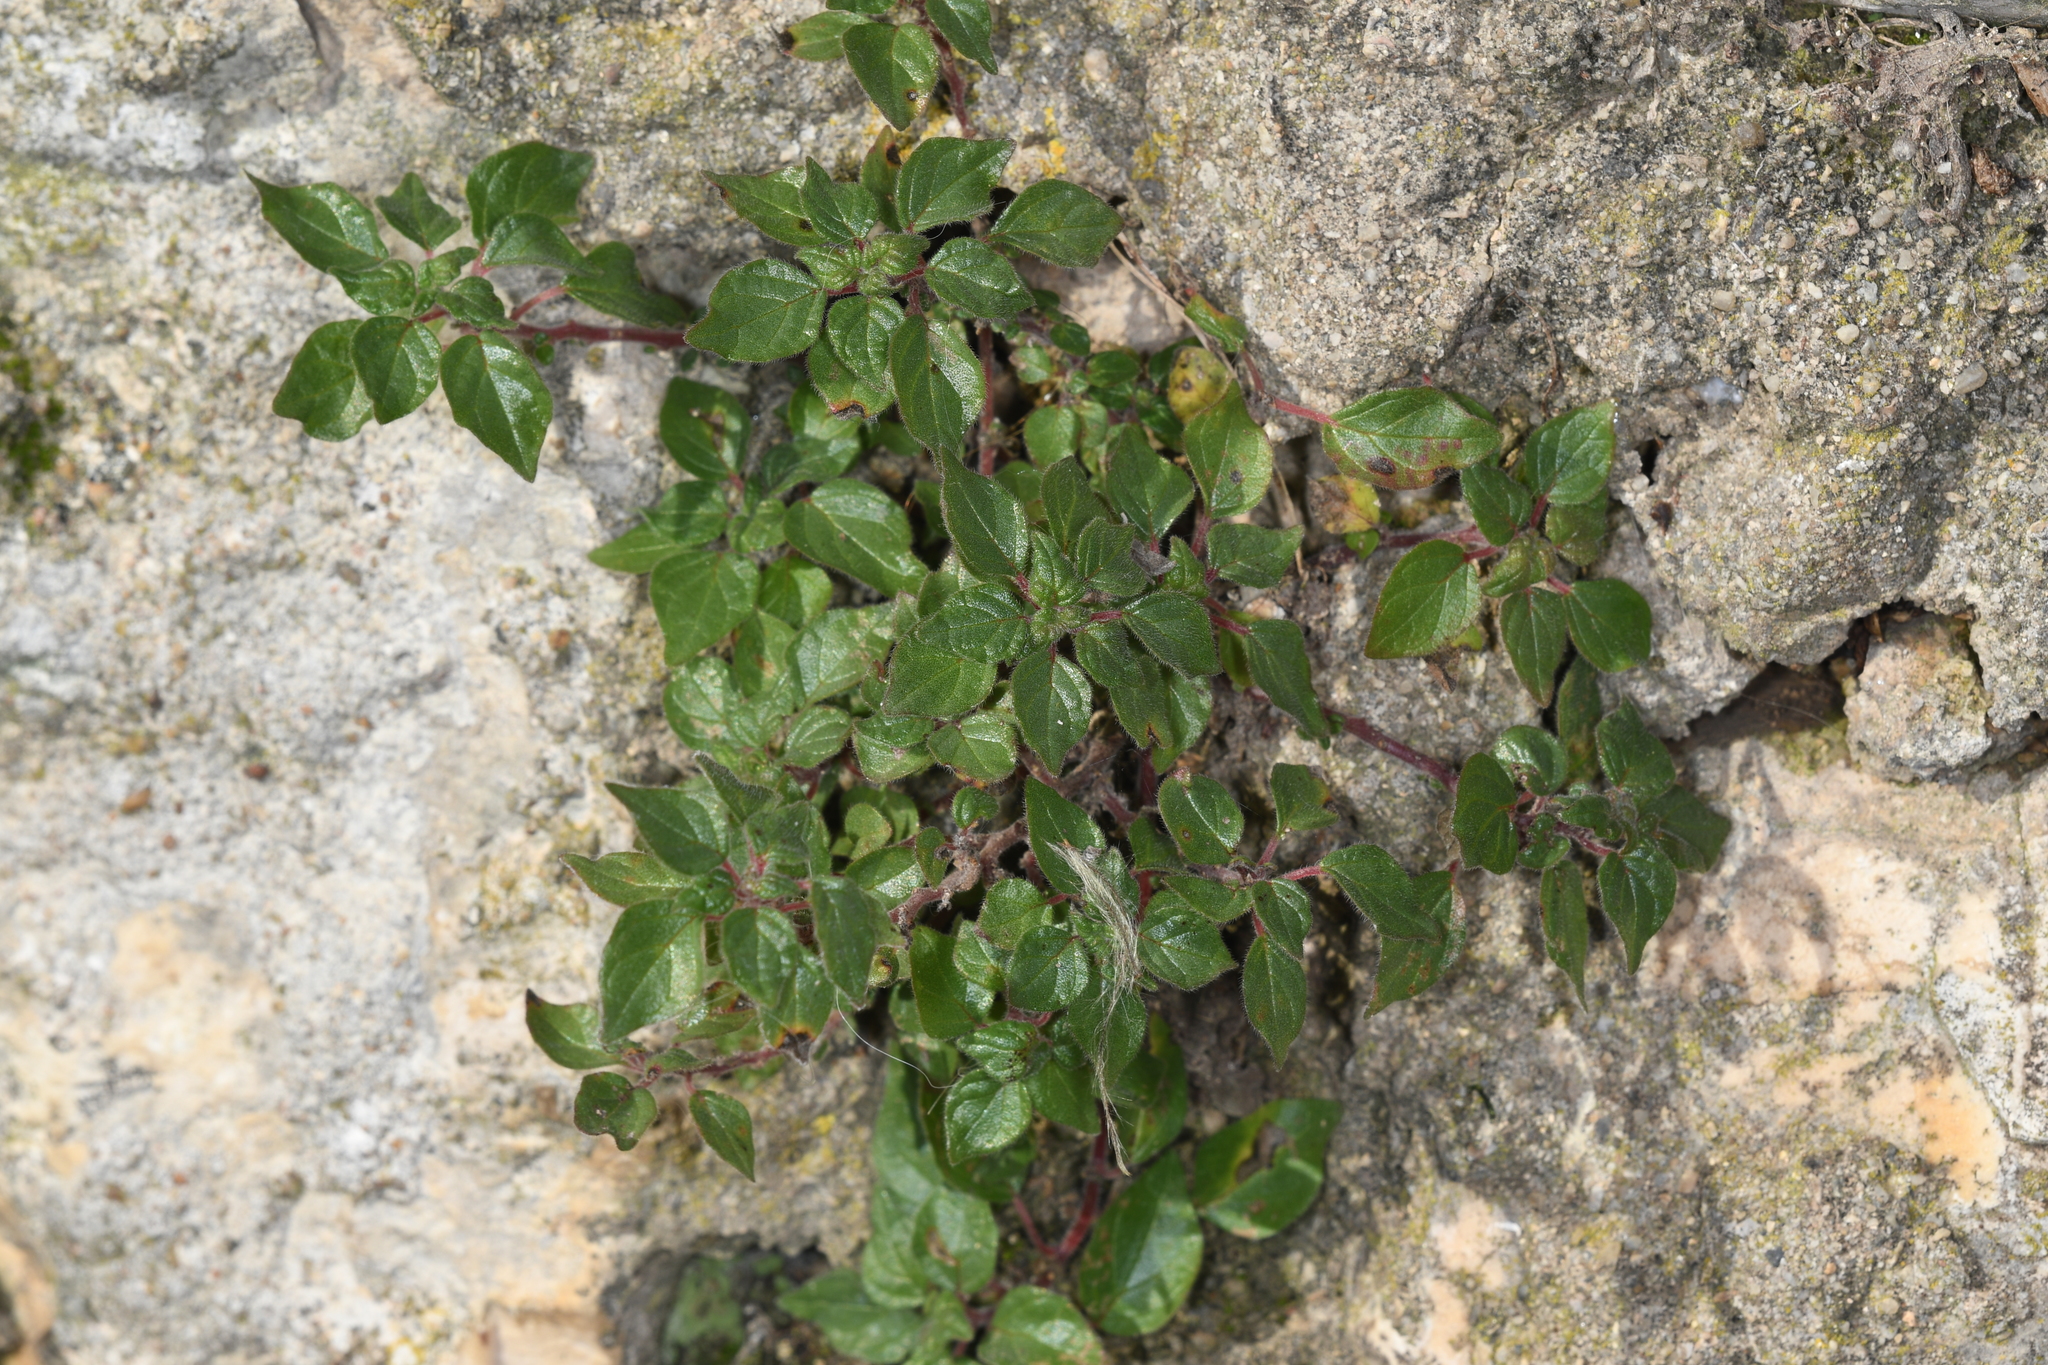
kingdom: Plantae
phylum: Tracheophyta
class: Magnoliopsida
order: Rosales
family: Urticaceae
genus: Parietaria
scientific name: Parietaria judaica
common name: Pellitory-of-the-wall
